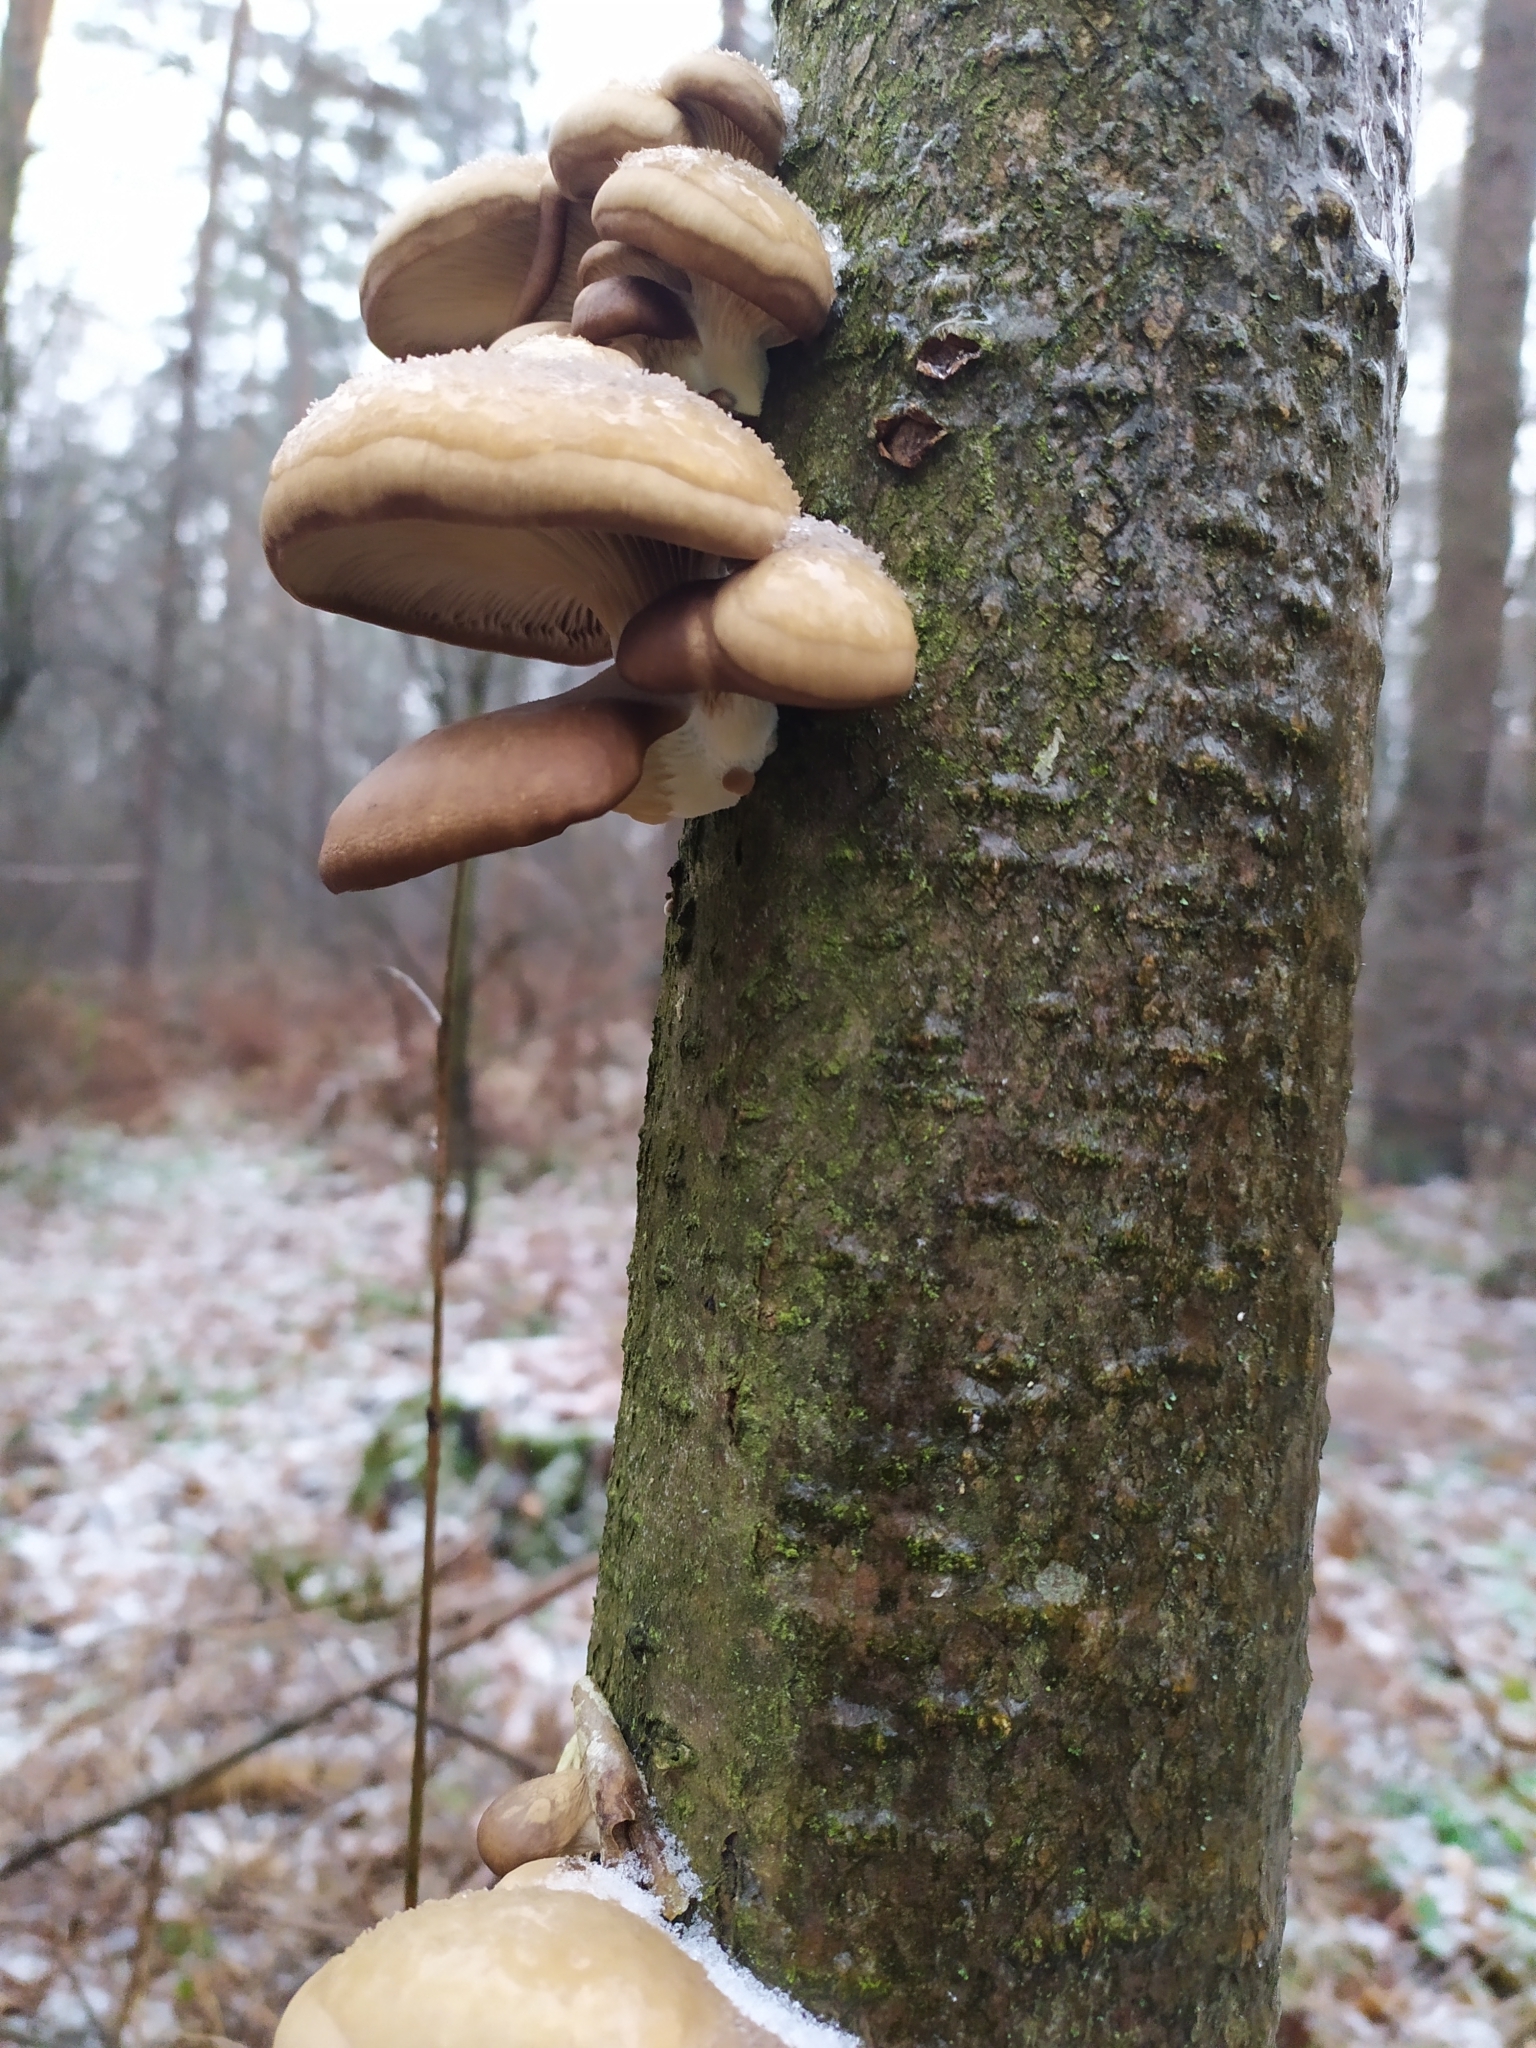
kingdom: Fungi
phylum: Basidiomycota
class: Agaricomycetes
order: Polyporales
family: Fomitopsidaceae
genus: Fomitopsis
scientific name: Fomitopsis betulina
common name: Birch polypore
